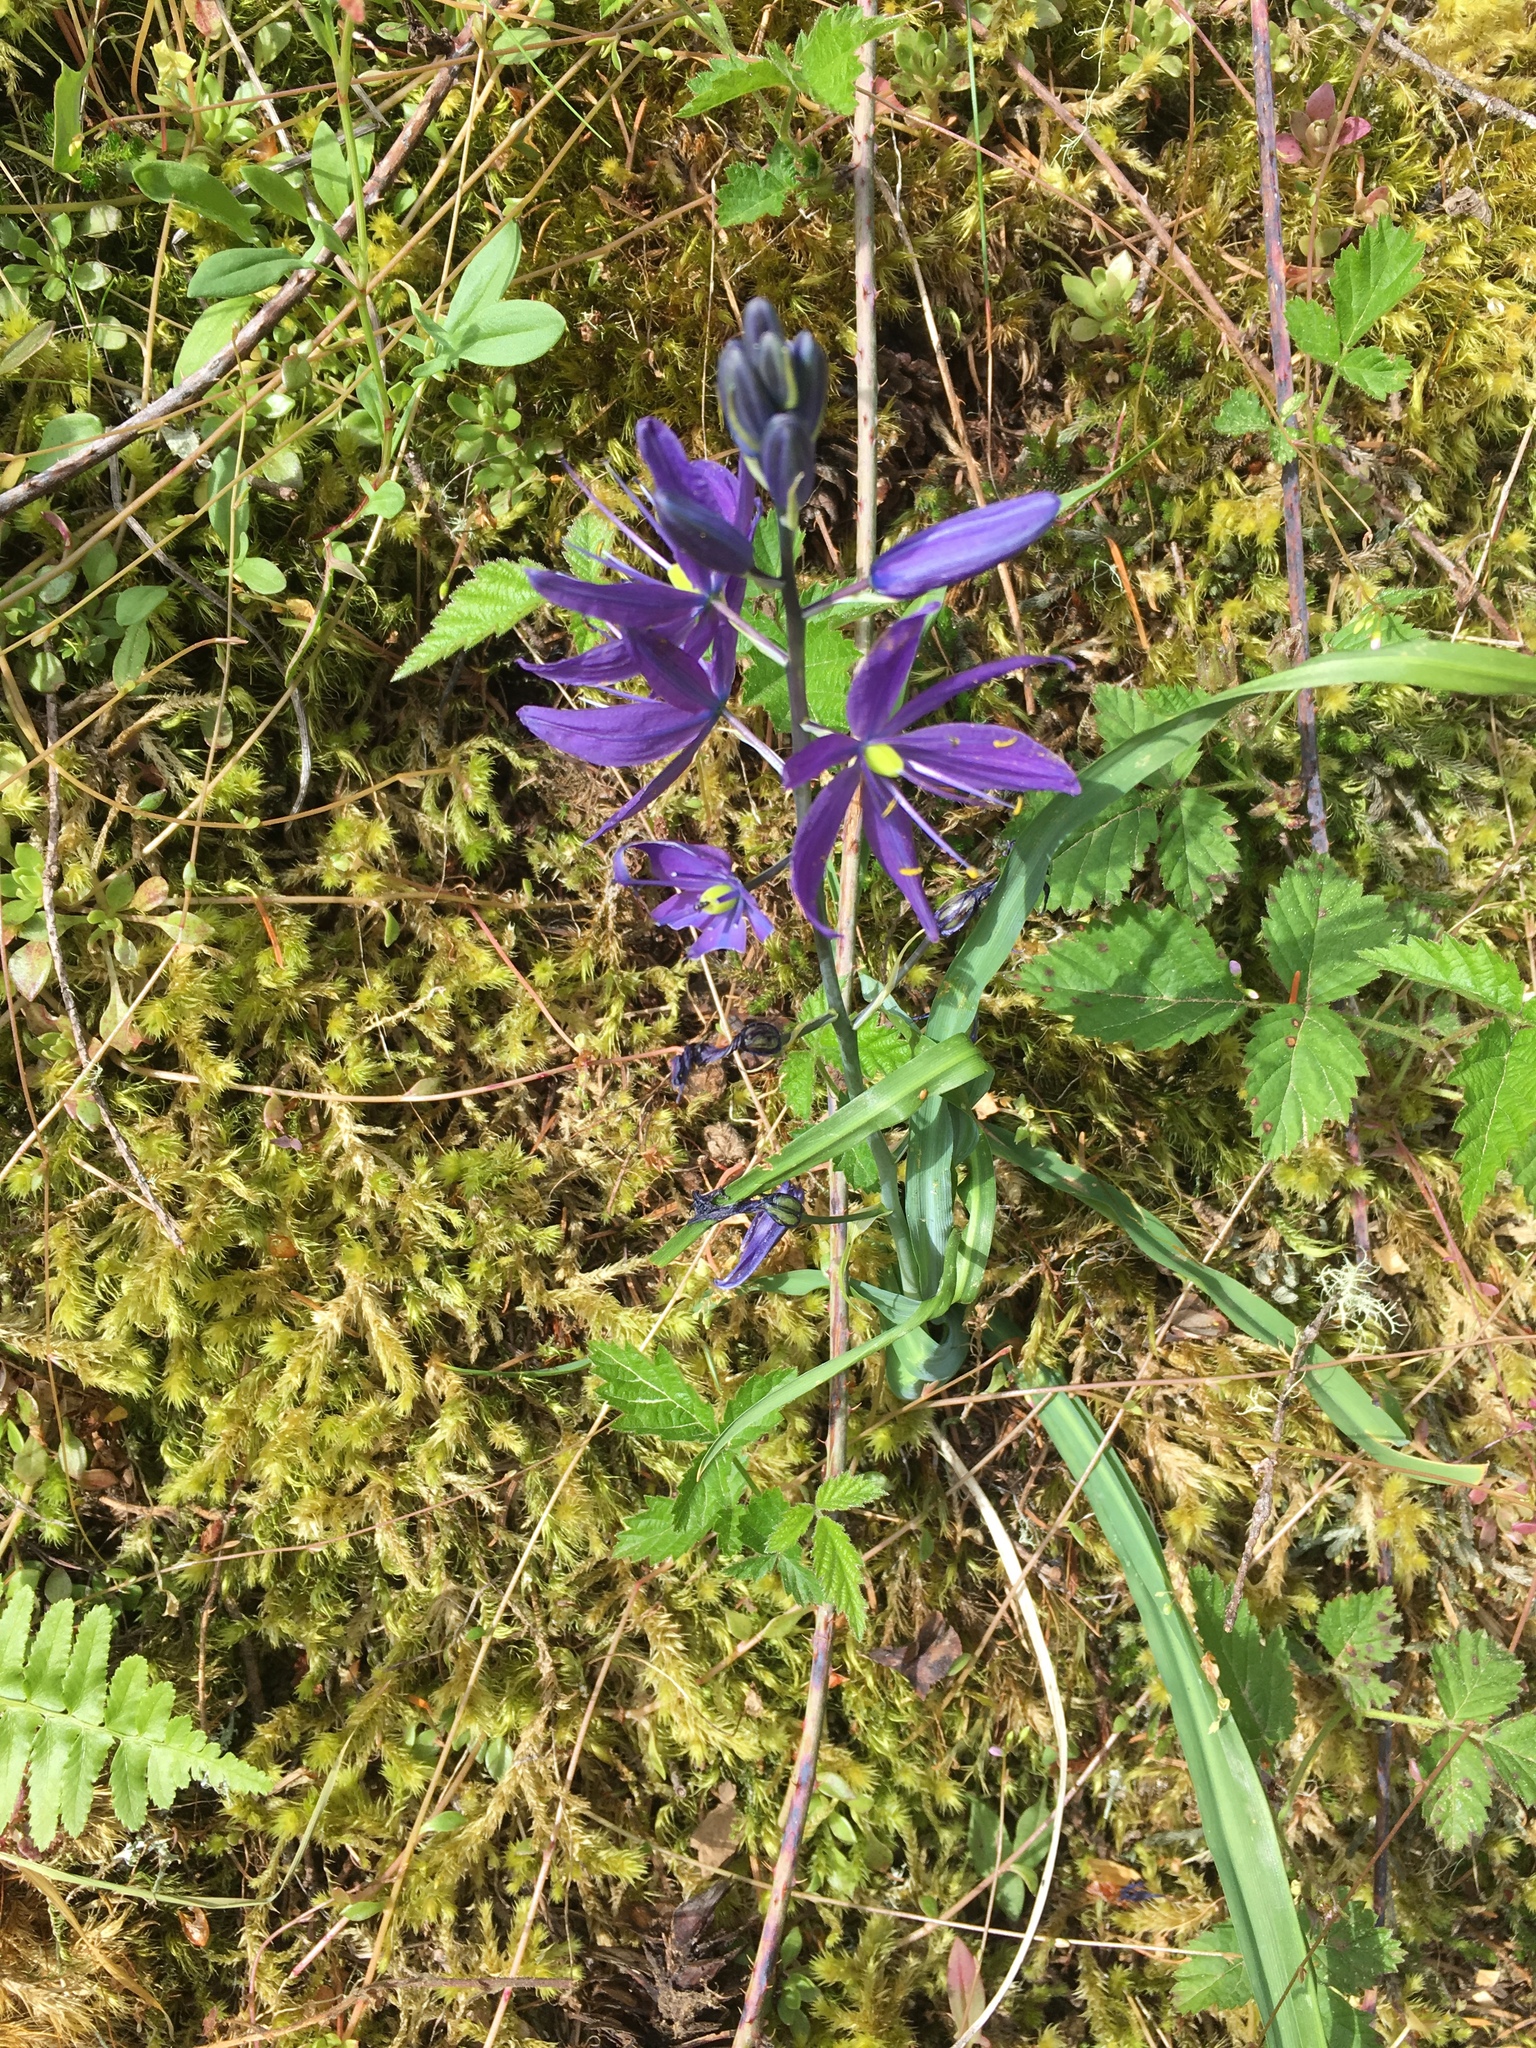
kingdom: Plantae
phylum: Tracheophyta
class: Liliopsida
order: Asparagales
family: Asparagaceae
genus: Camassia
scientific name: Camassia leichtlinii
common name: Leichtlin's camas
